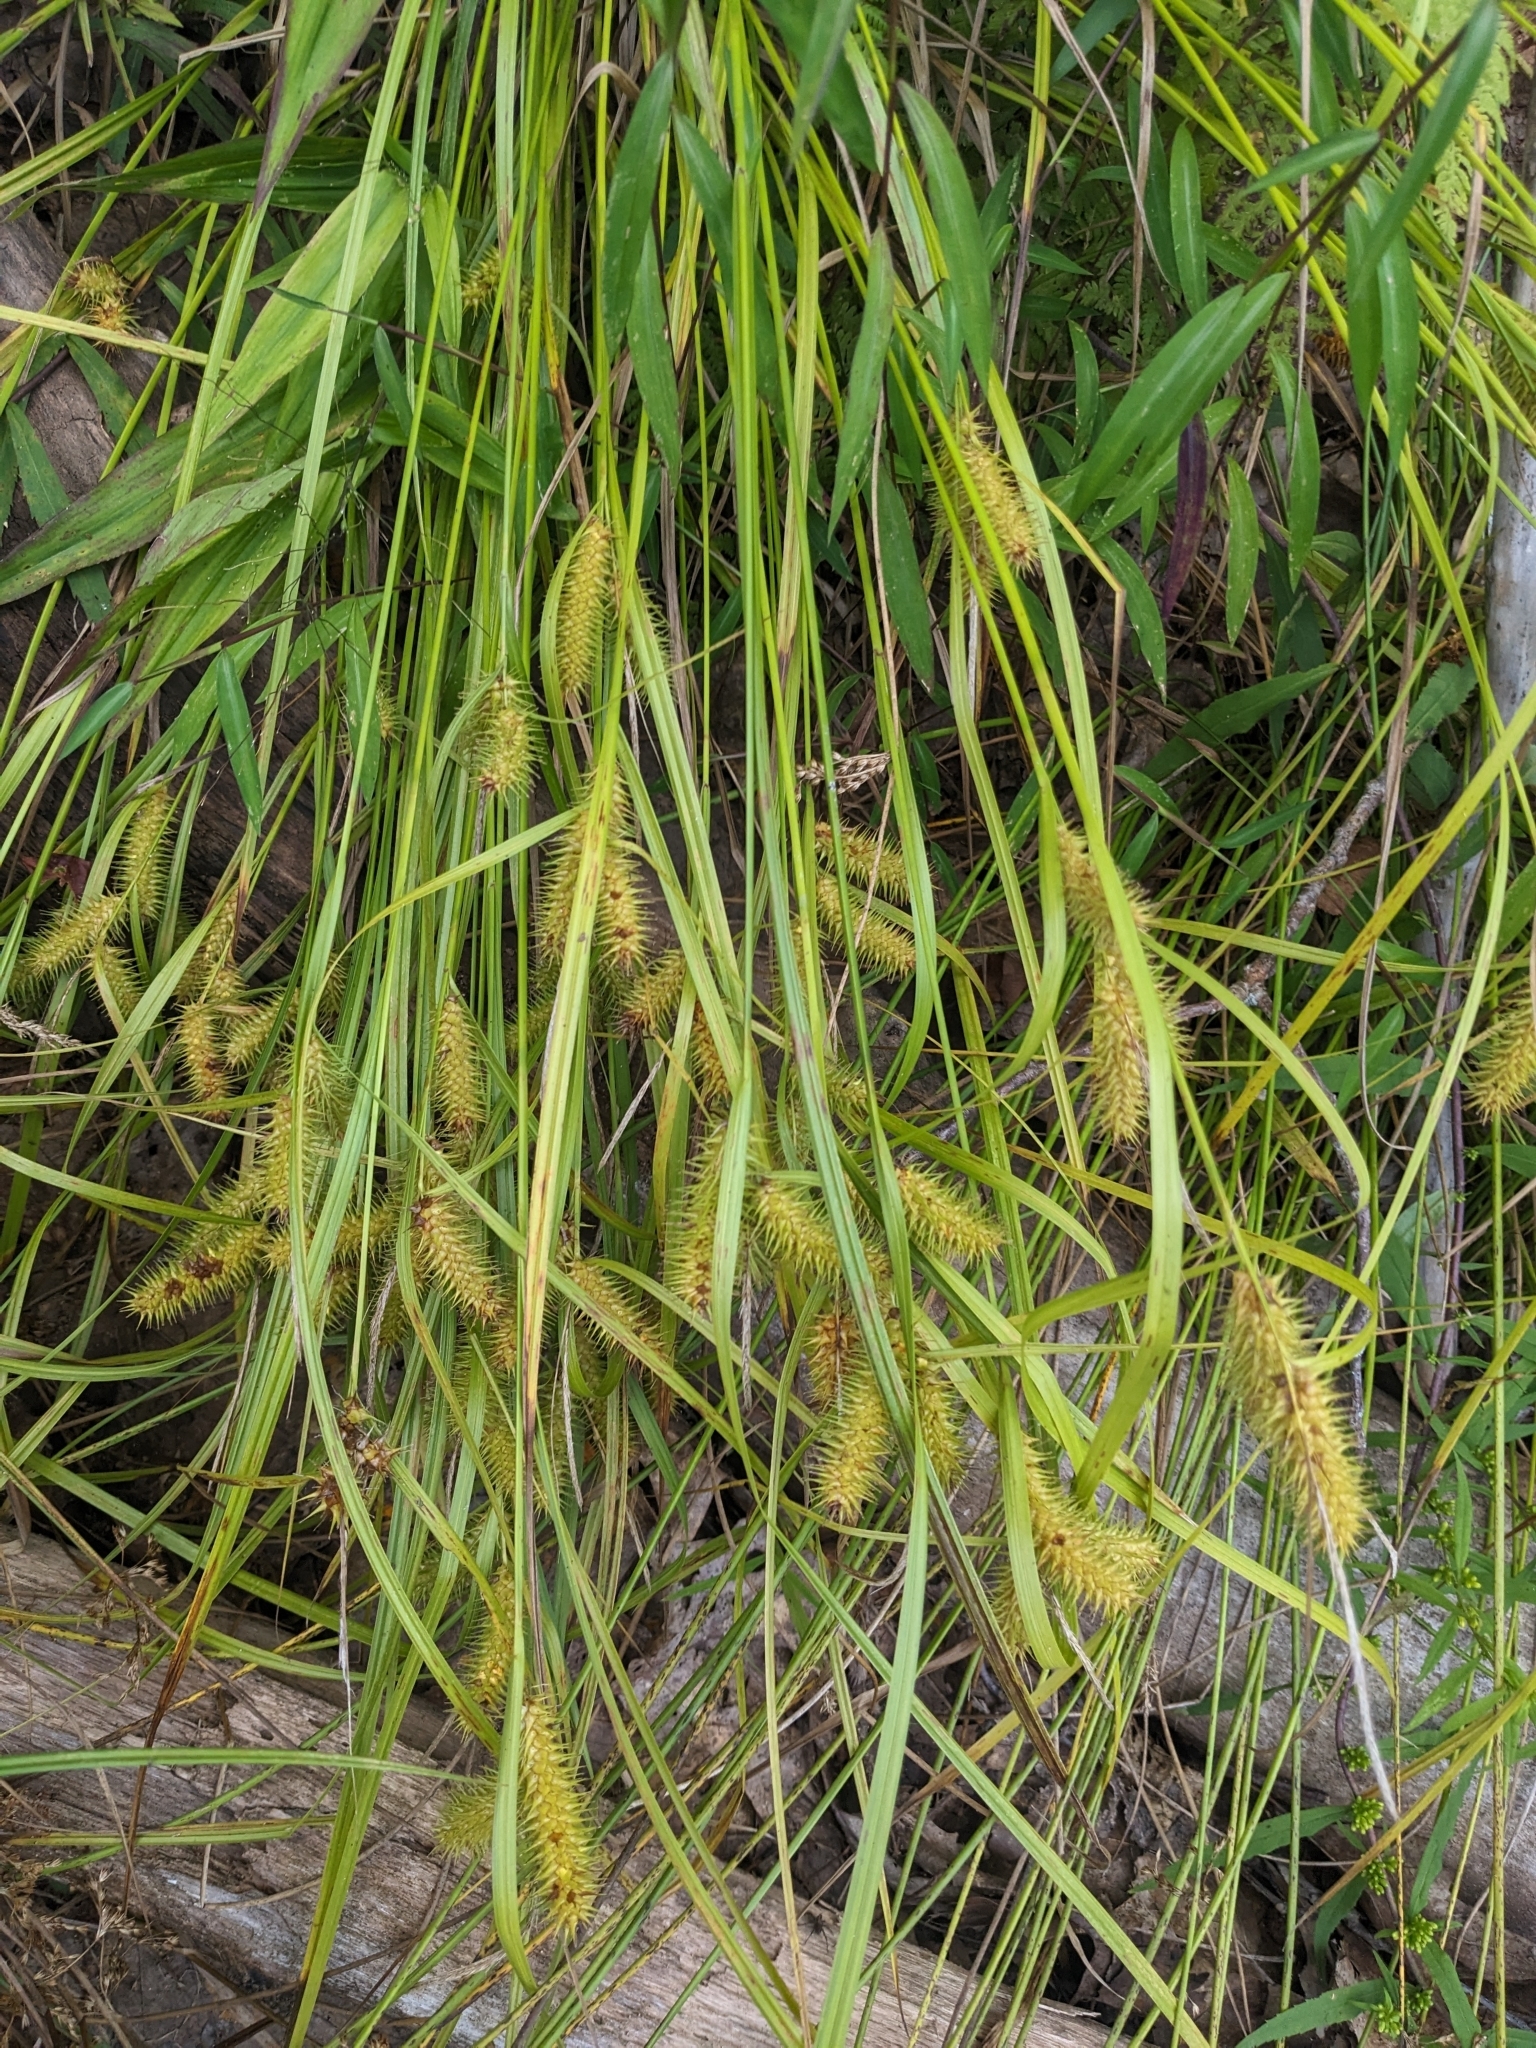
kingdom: Plantae
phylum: Tracheophyta
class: Liliopsida
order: Poales
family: Cyperaceae
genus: Carex
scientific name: Carex lurida
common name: Sallow sedge
